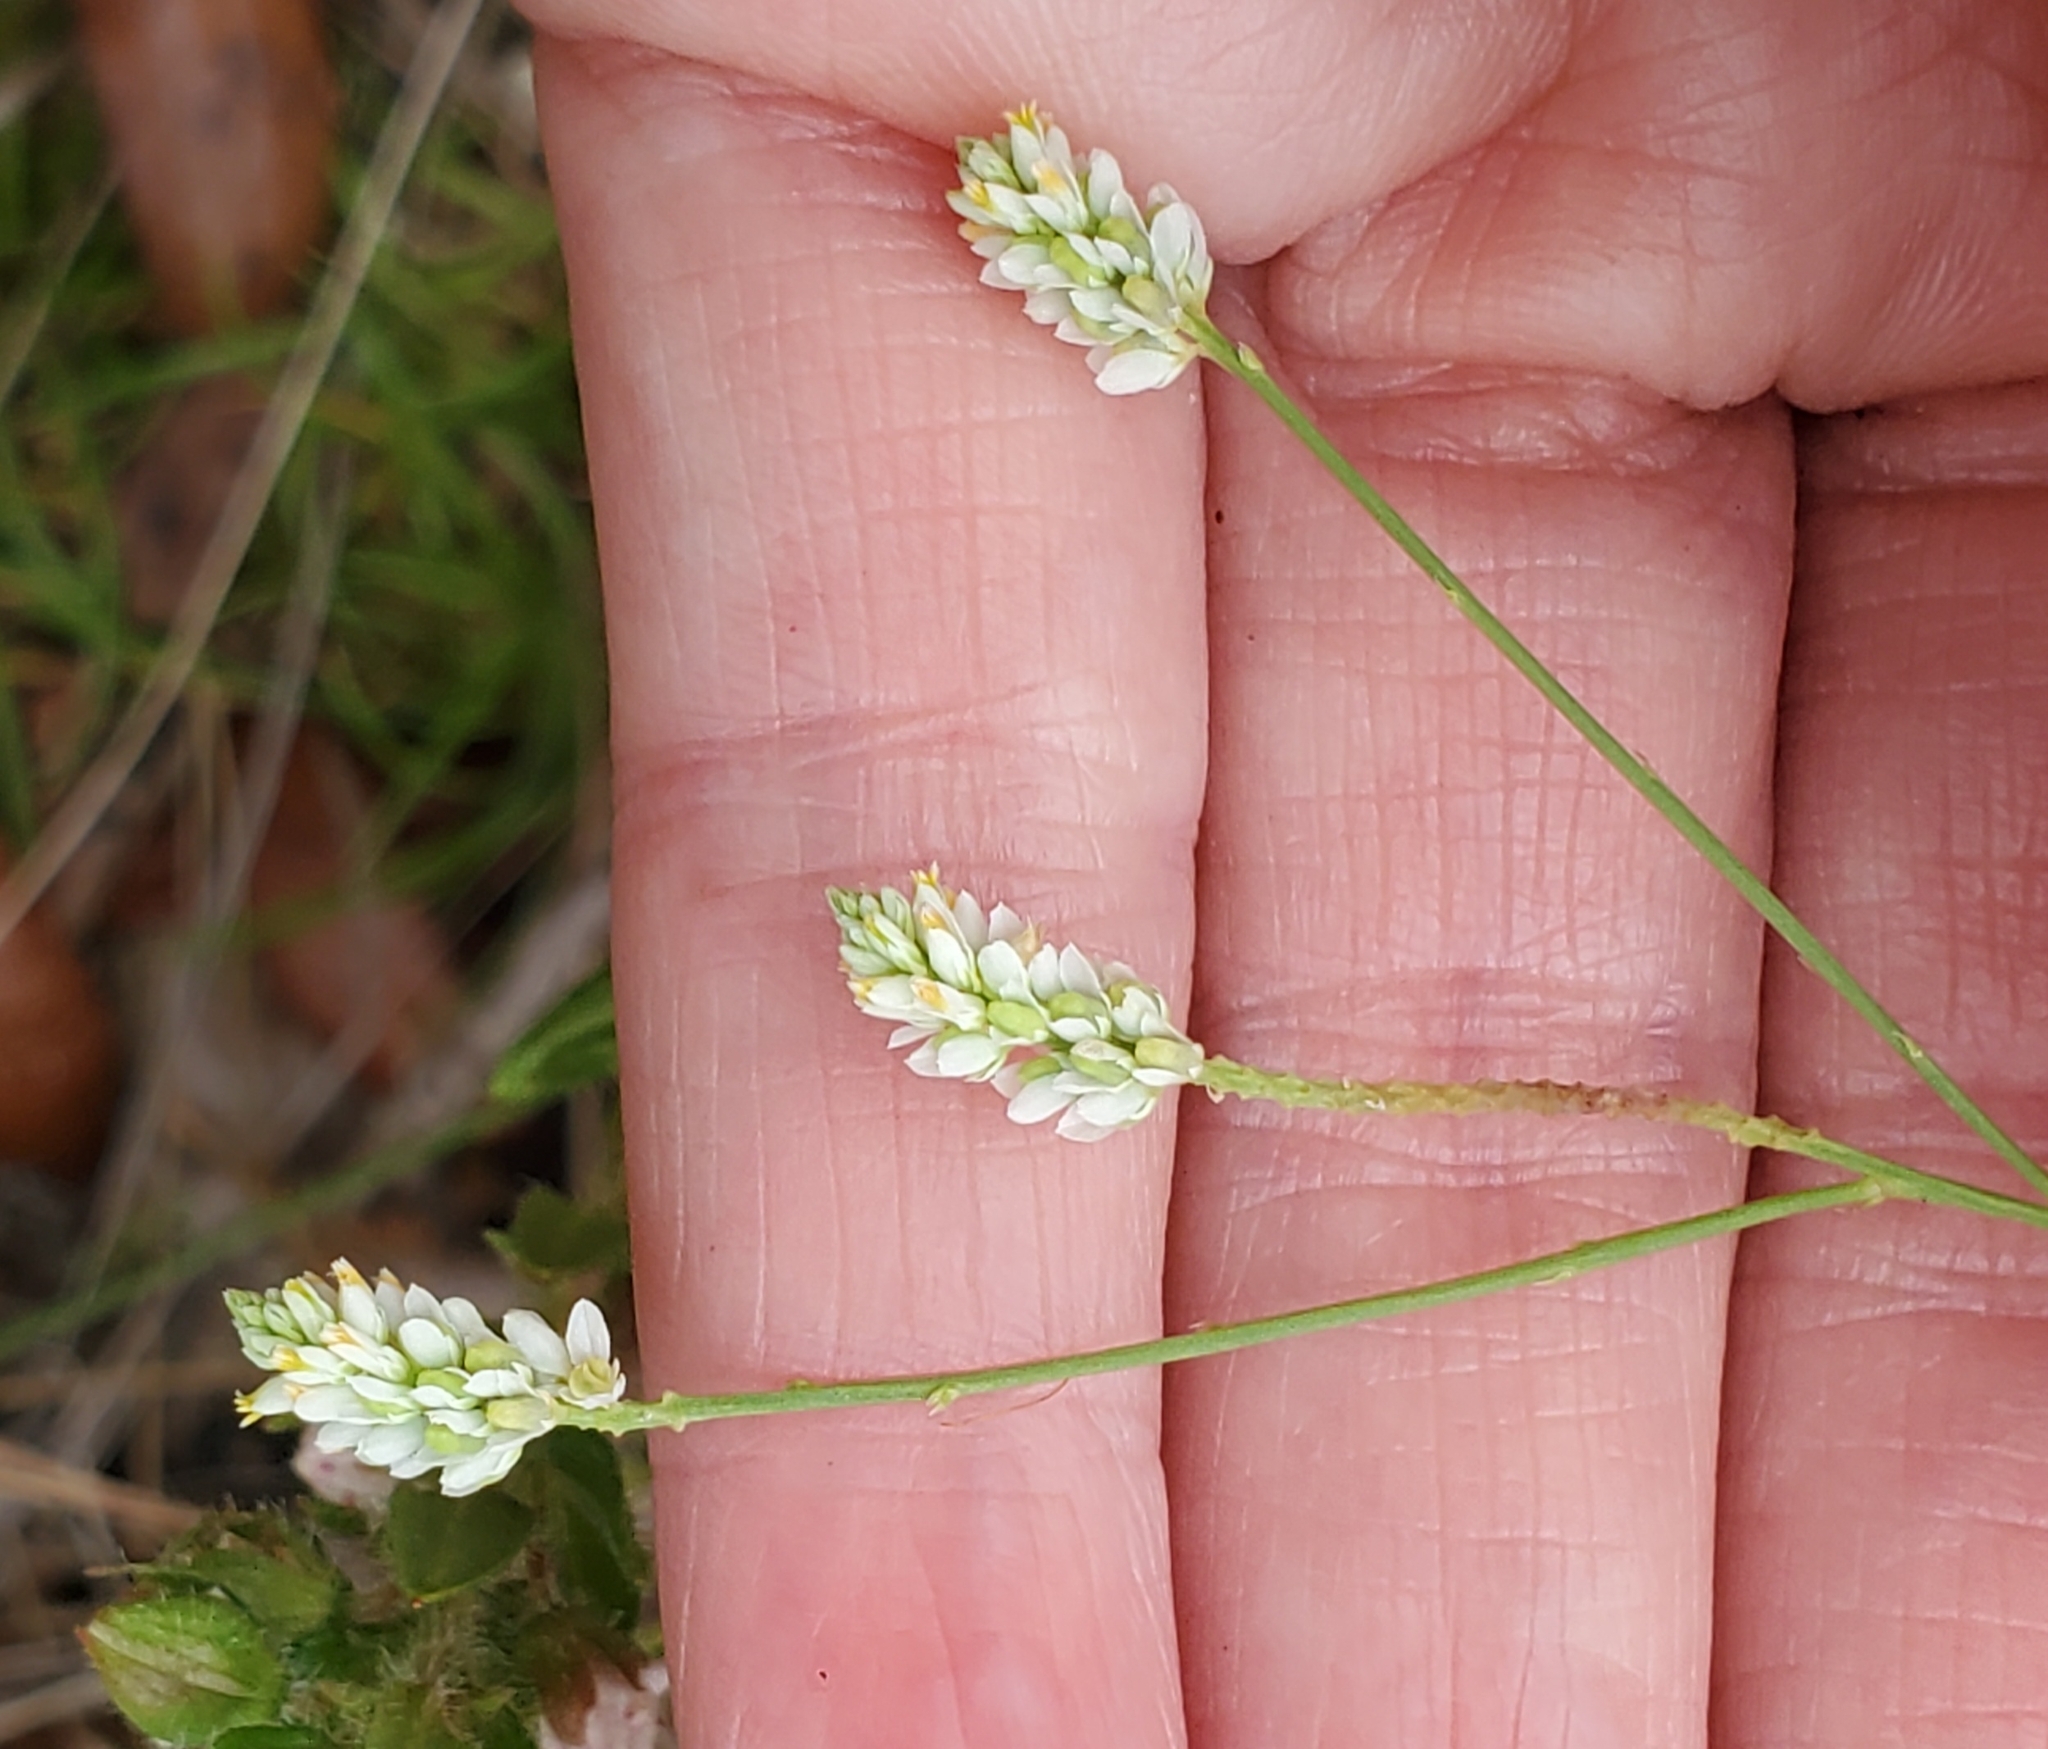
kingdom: Plantae
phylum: Tracheophyta
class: Magnoliopsida
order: Fabales
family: Polygalaceae
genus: Polygala
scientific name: Polygala setacea
